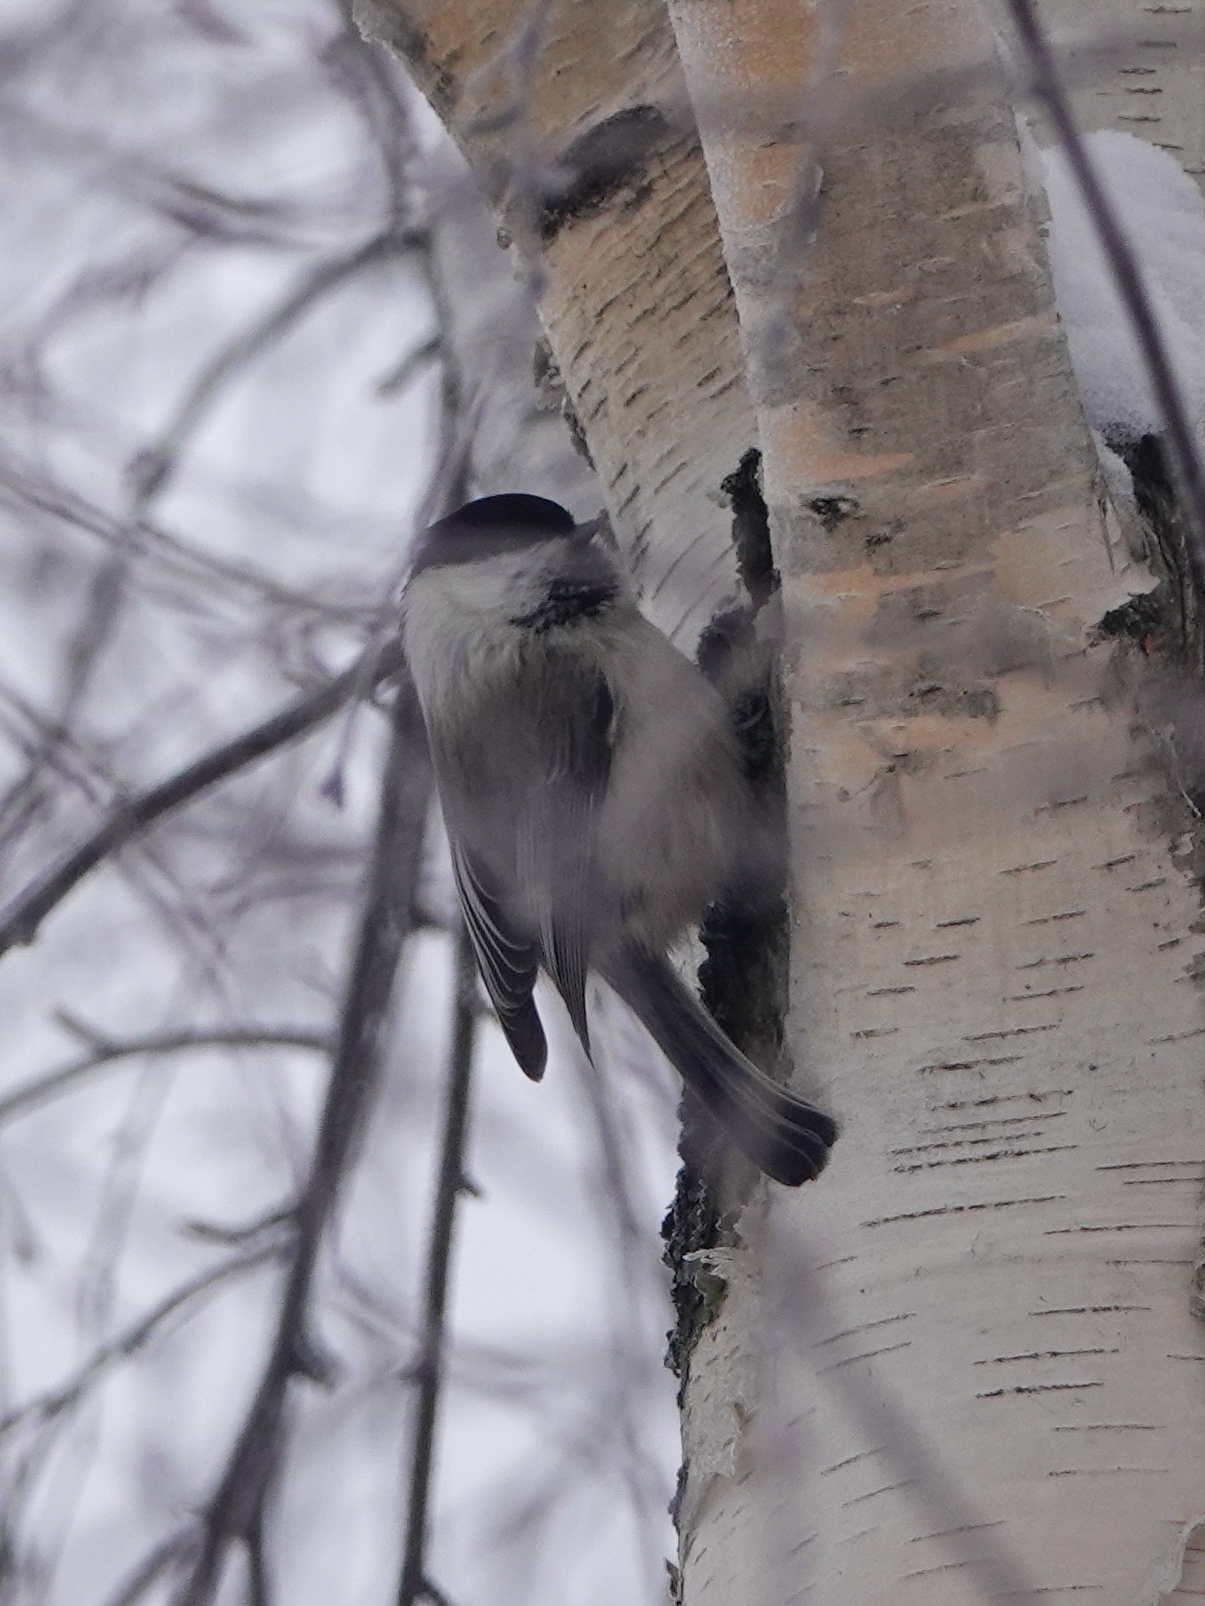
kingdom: Animalia
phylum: Chordata
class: Aves
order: Passeriformes
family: Paridae
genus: Poecile
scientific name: Poecile montanus
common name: Willow tit
